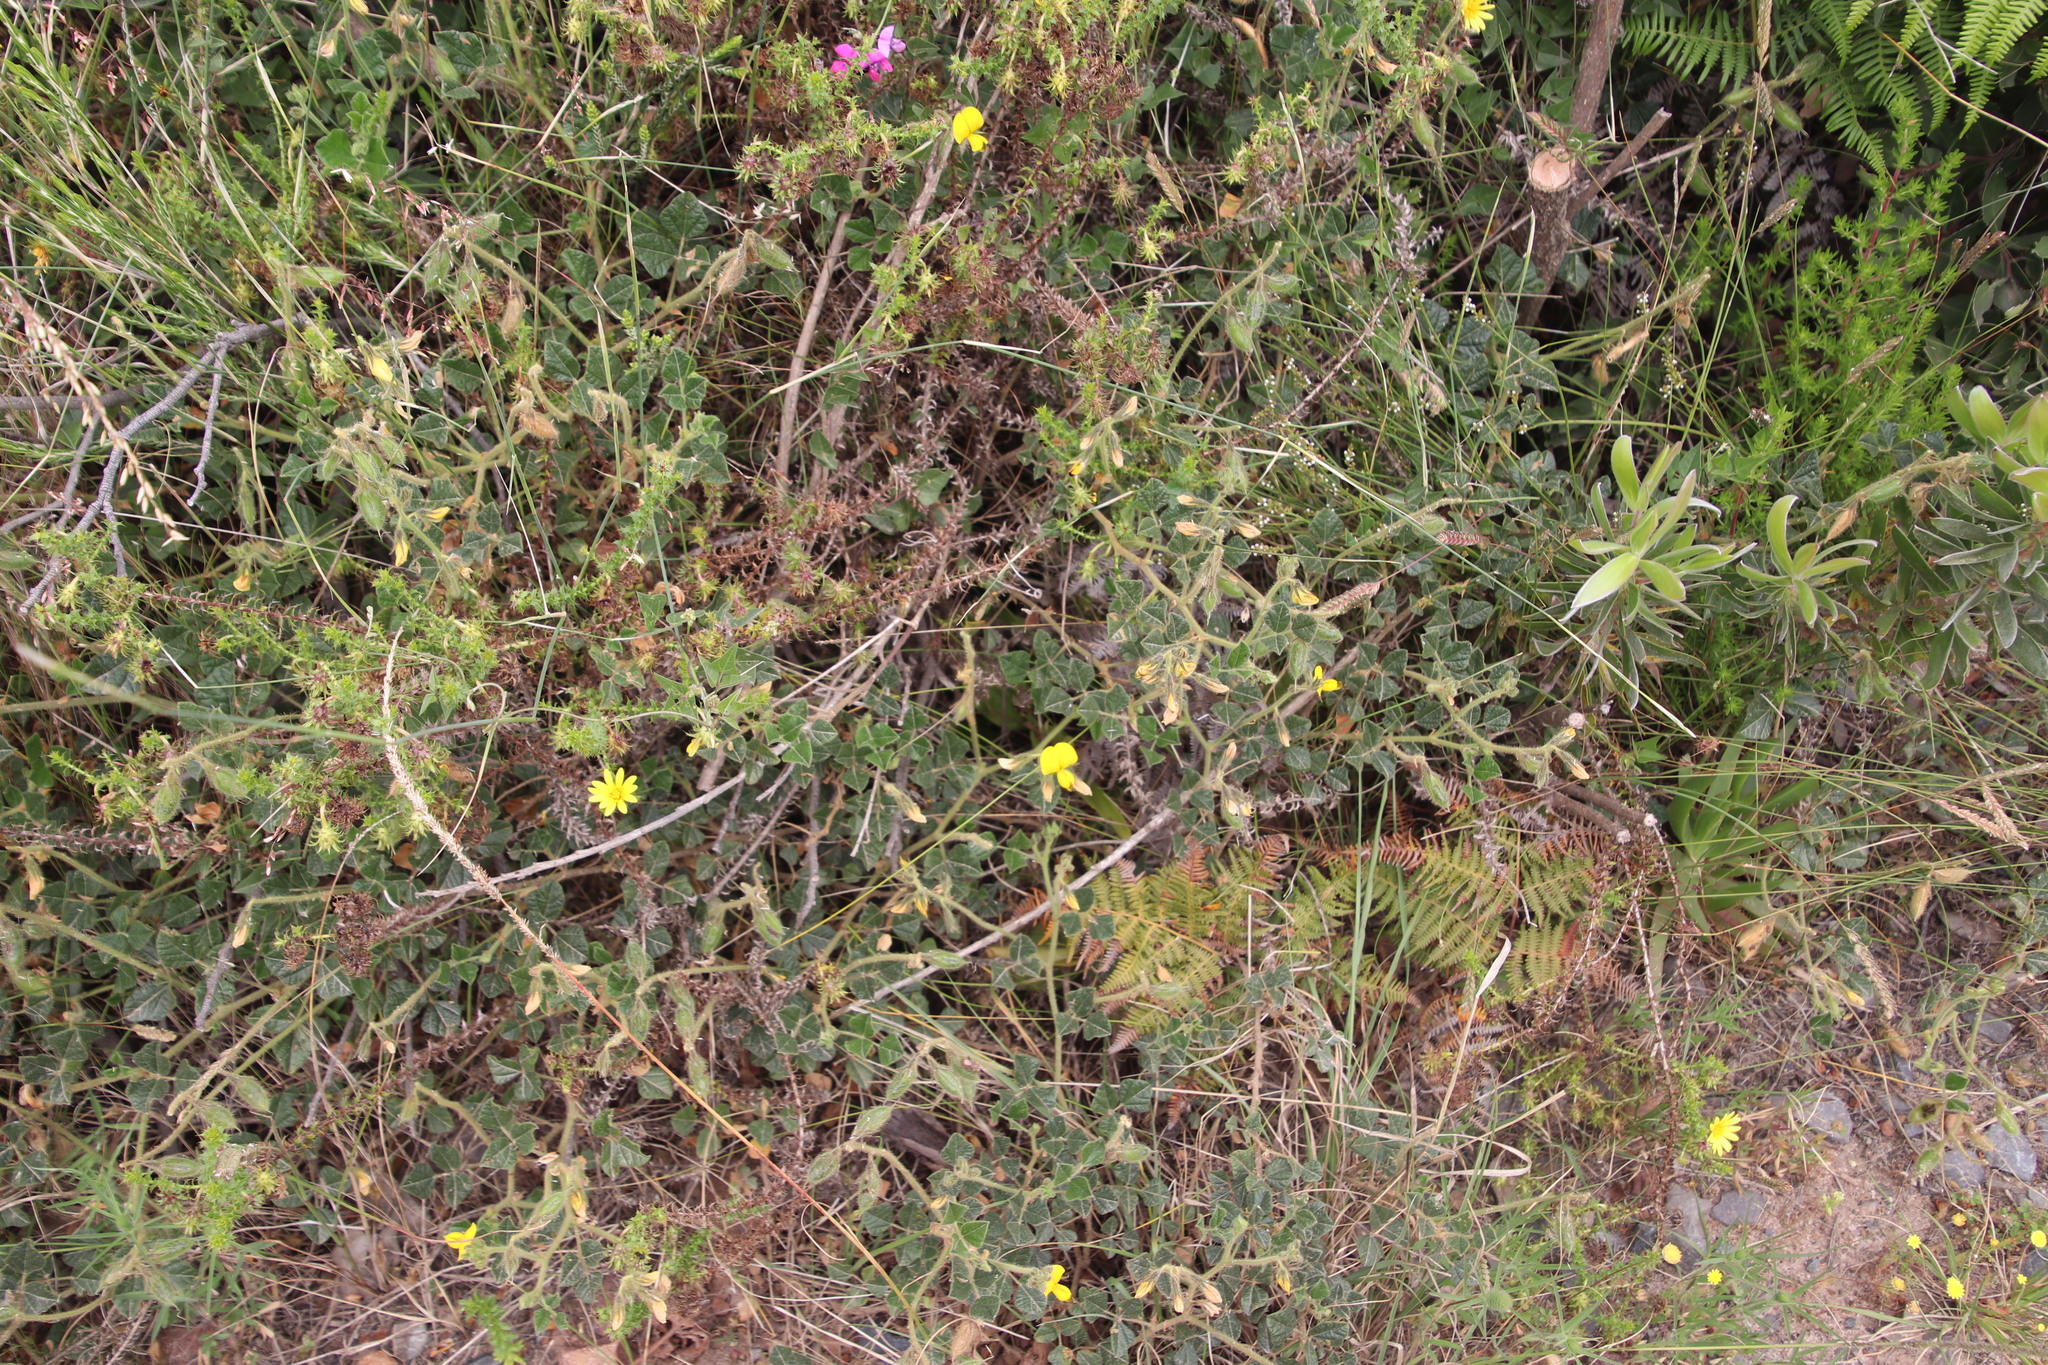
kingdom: Plantae
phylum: Tracheophyta
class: Magnoliopsida
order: Fabales
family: Fabaceae
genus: Bolusafra
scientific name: Bolusafra bituminosa
